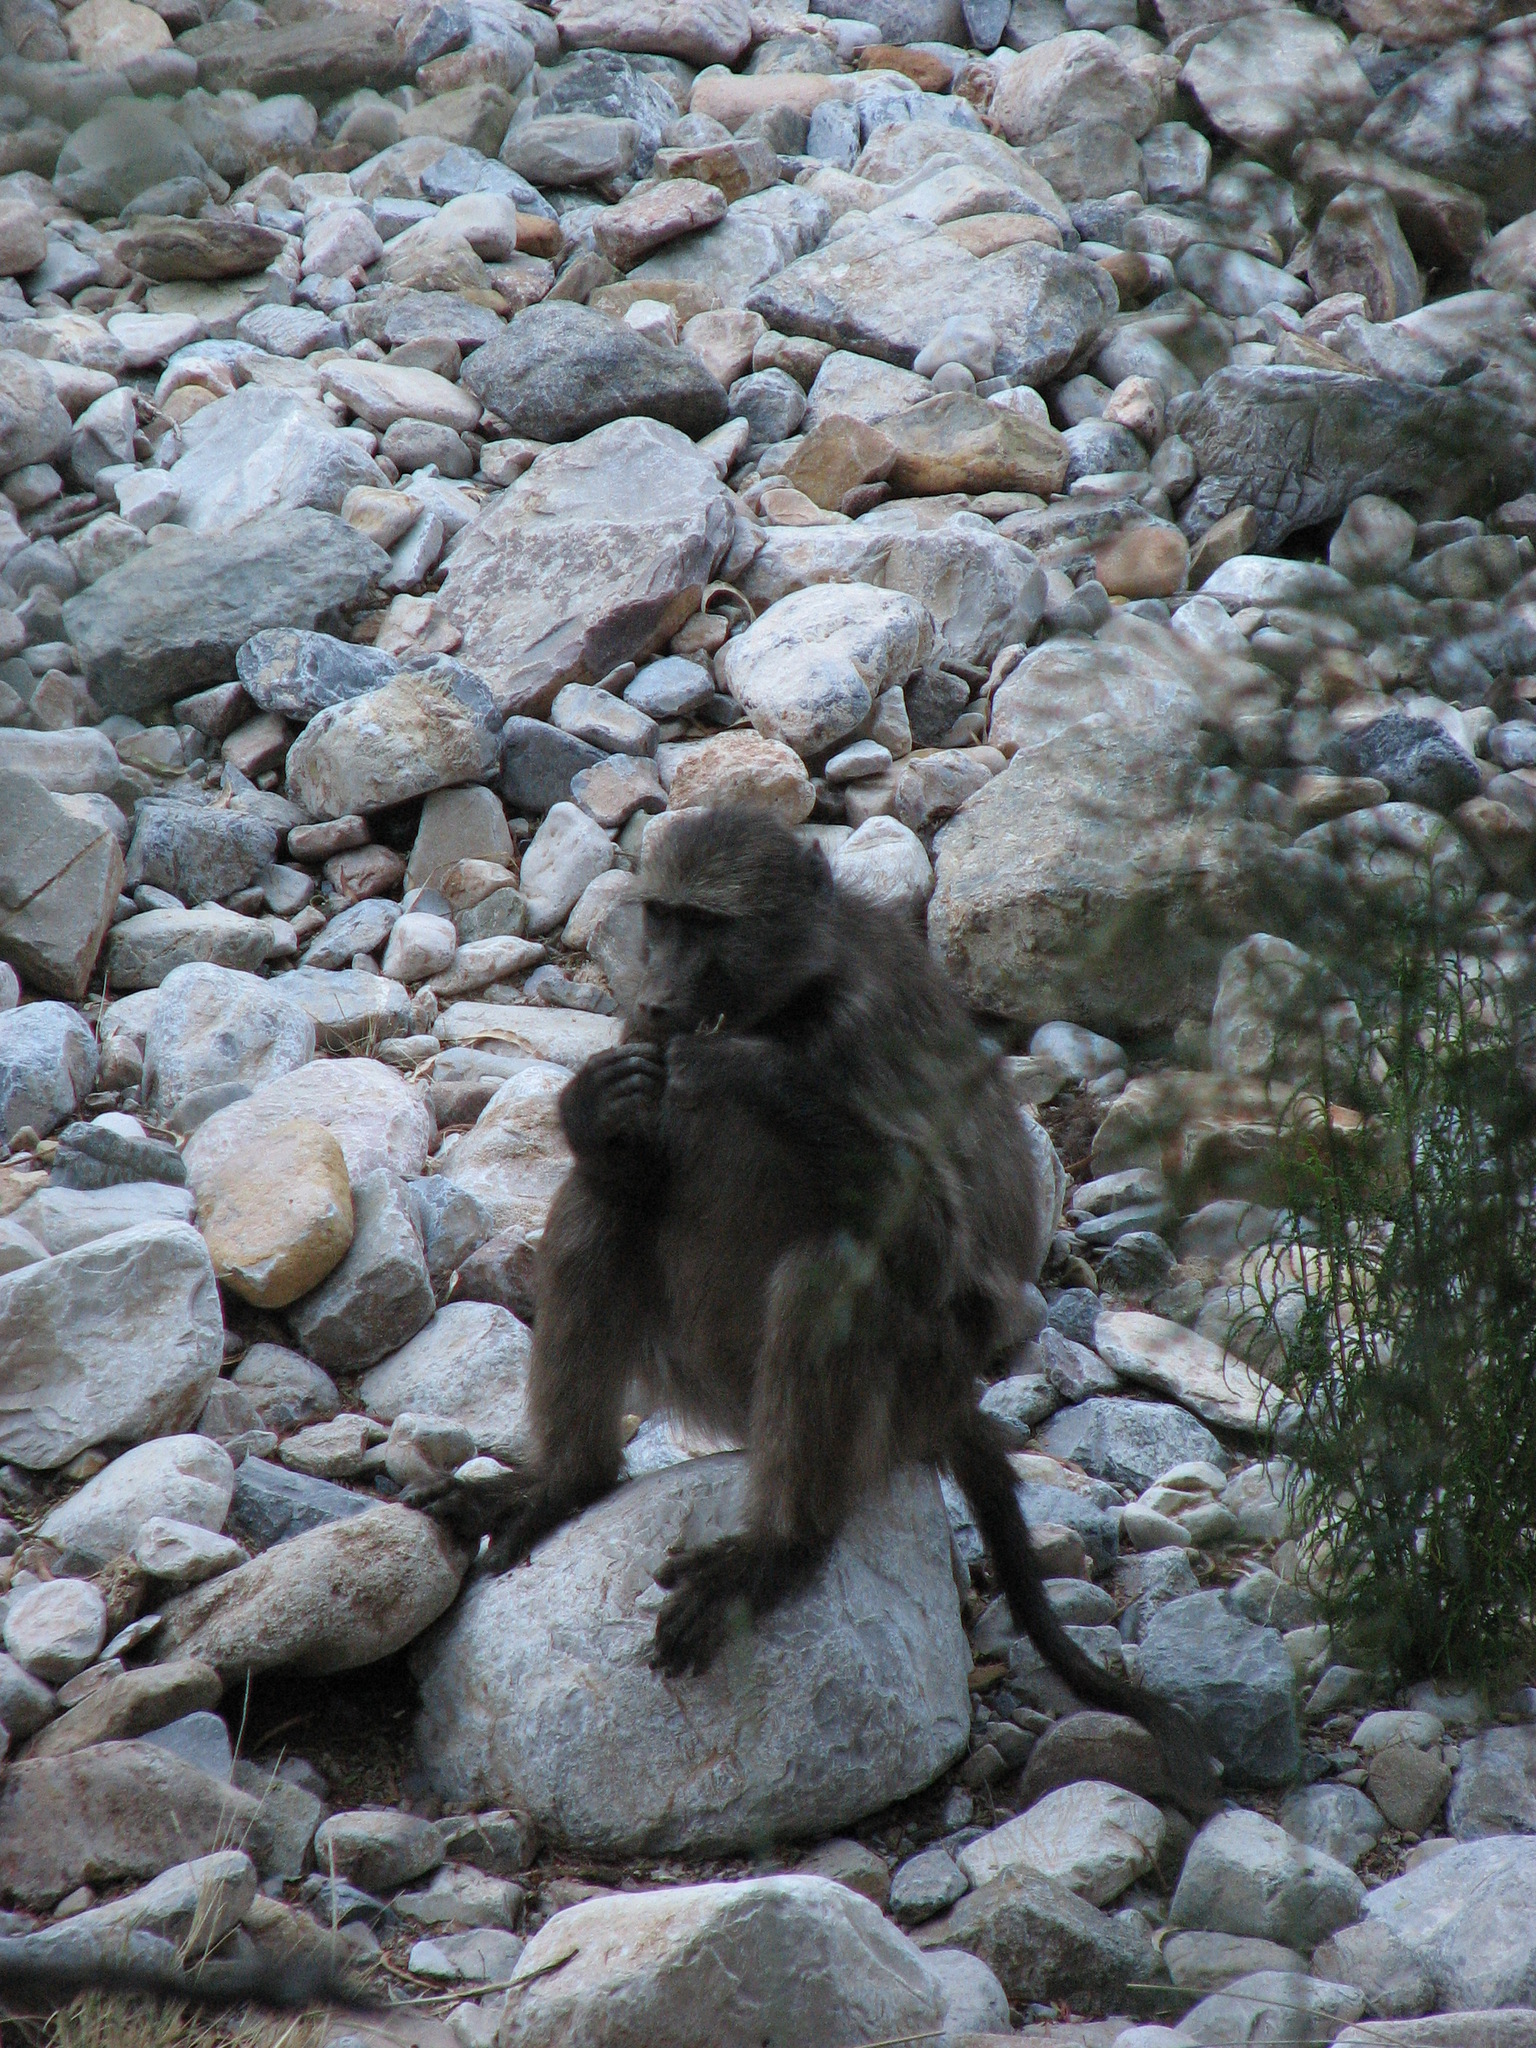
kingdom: Animalia
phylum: Chordata
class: Mammalia
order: Primates
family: Cercopithecidae
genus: Papio
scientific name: Papio ursinus
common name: Chacma baboon
